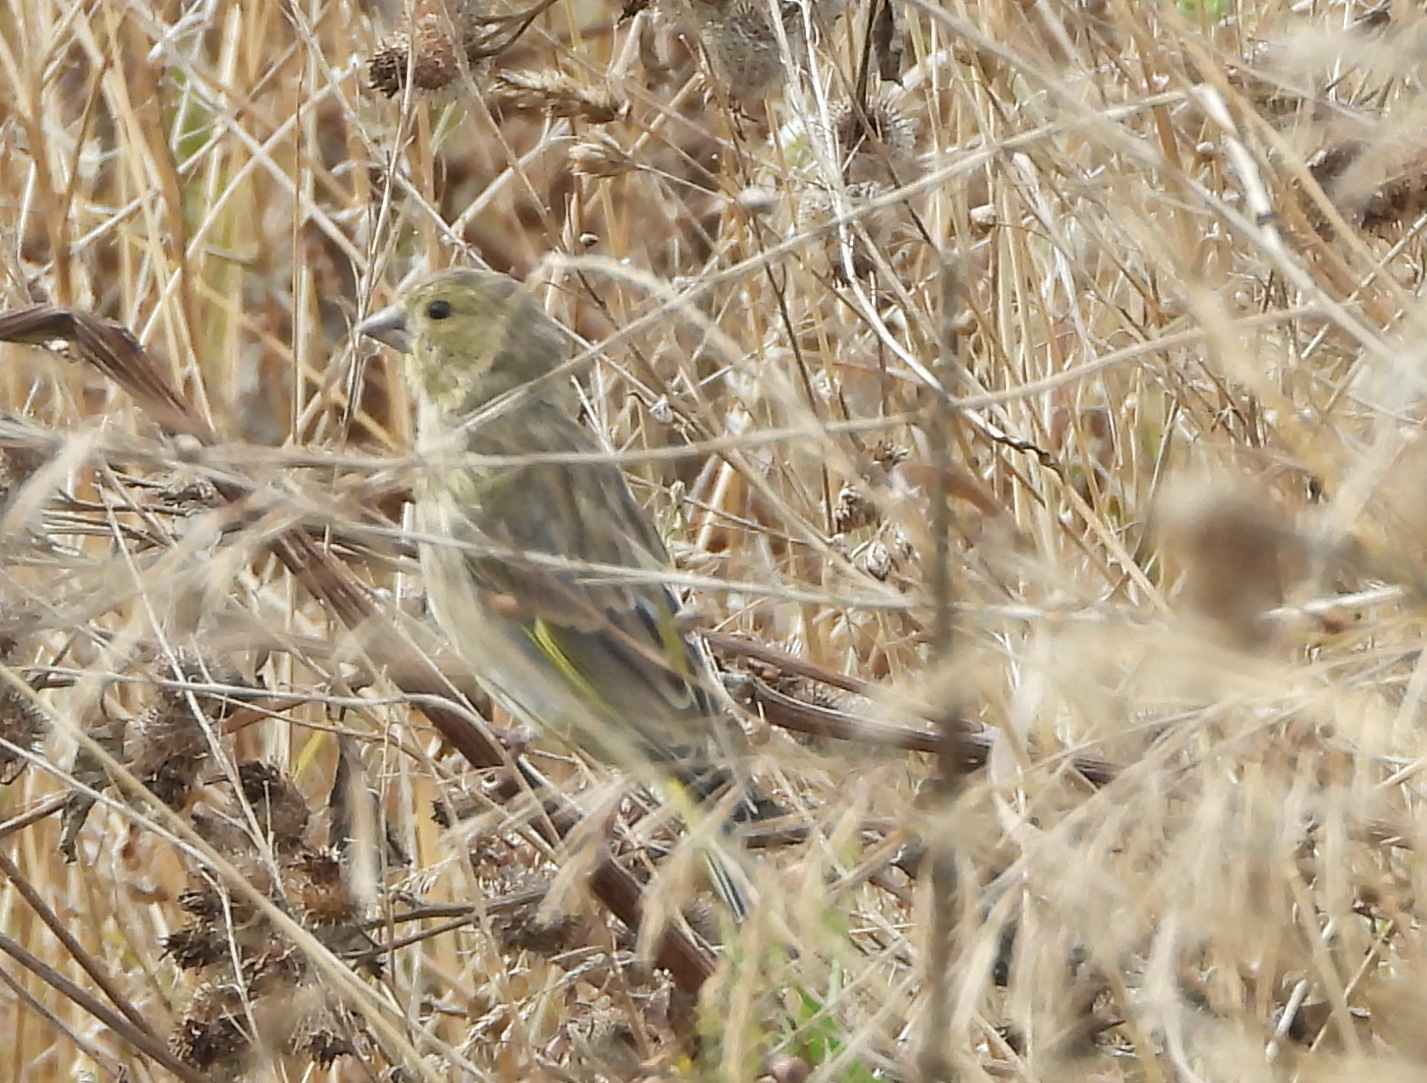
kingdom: Plantae
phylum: Tracheophyta
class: Liliopsida
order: Poales
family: Poaceae
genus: Chloris
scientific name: Chloris chloris
